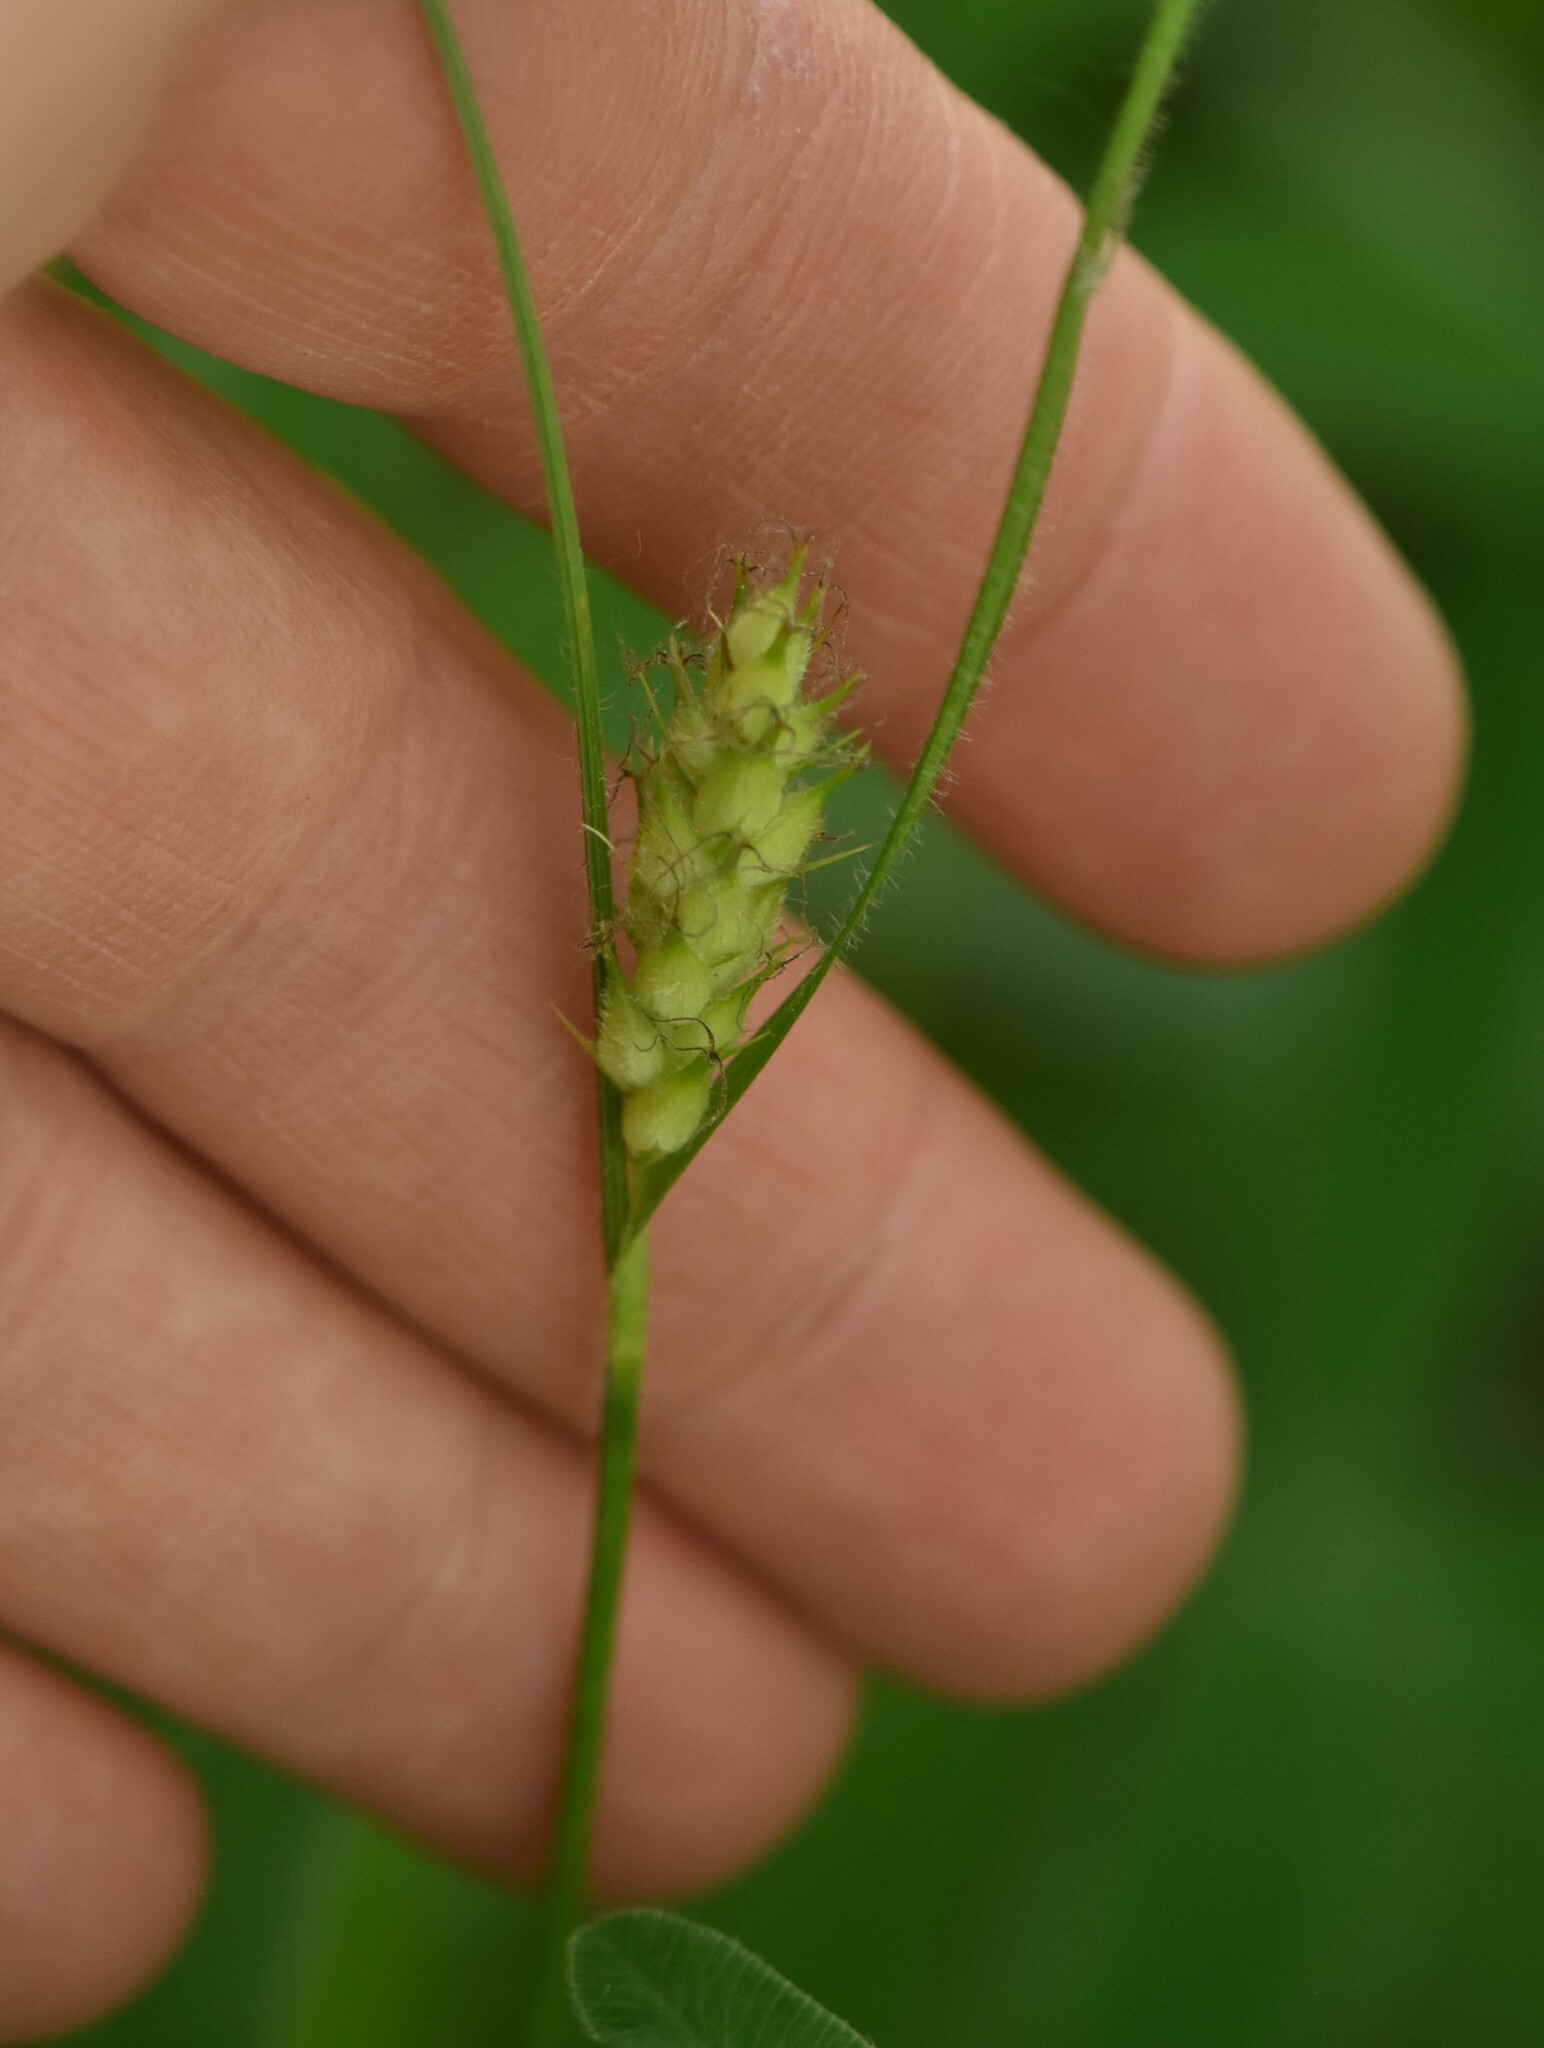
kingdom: Plantae
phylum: Tracheophyta
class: Liliopsida
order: Poales
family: Cyperaceae
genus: Carex
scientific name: Carex hirta
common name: Hairy sedge
